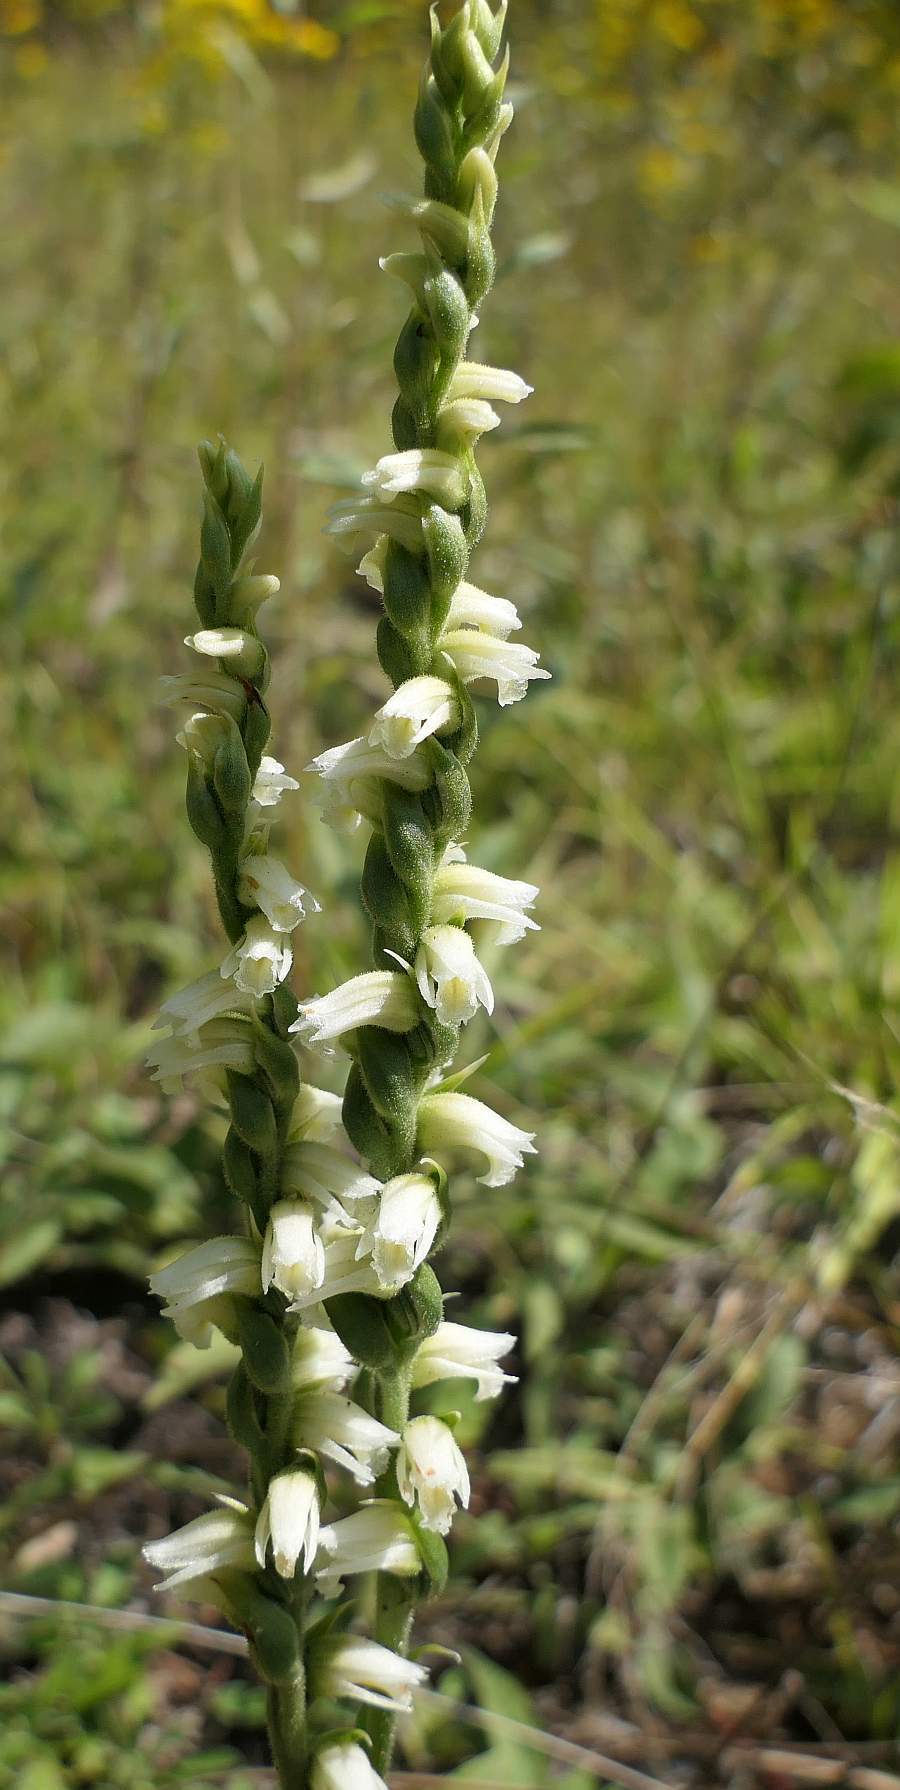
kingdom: Plantae
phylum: Tracheophyta
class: Liliopsida
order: Asparagales
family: Orchidaceae
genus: Spiranthes
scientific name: Spiranthes casei
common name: Case's ladies'-tresses
